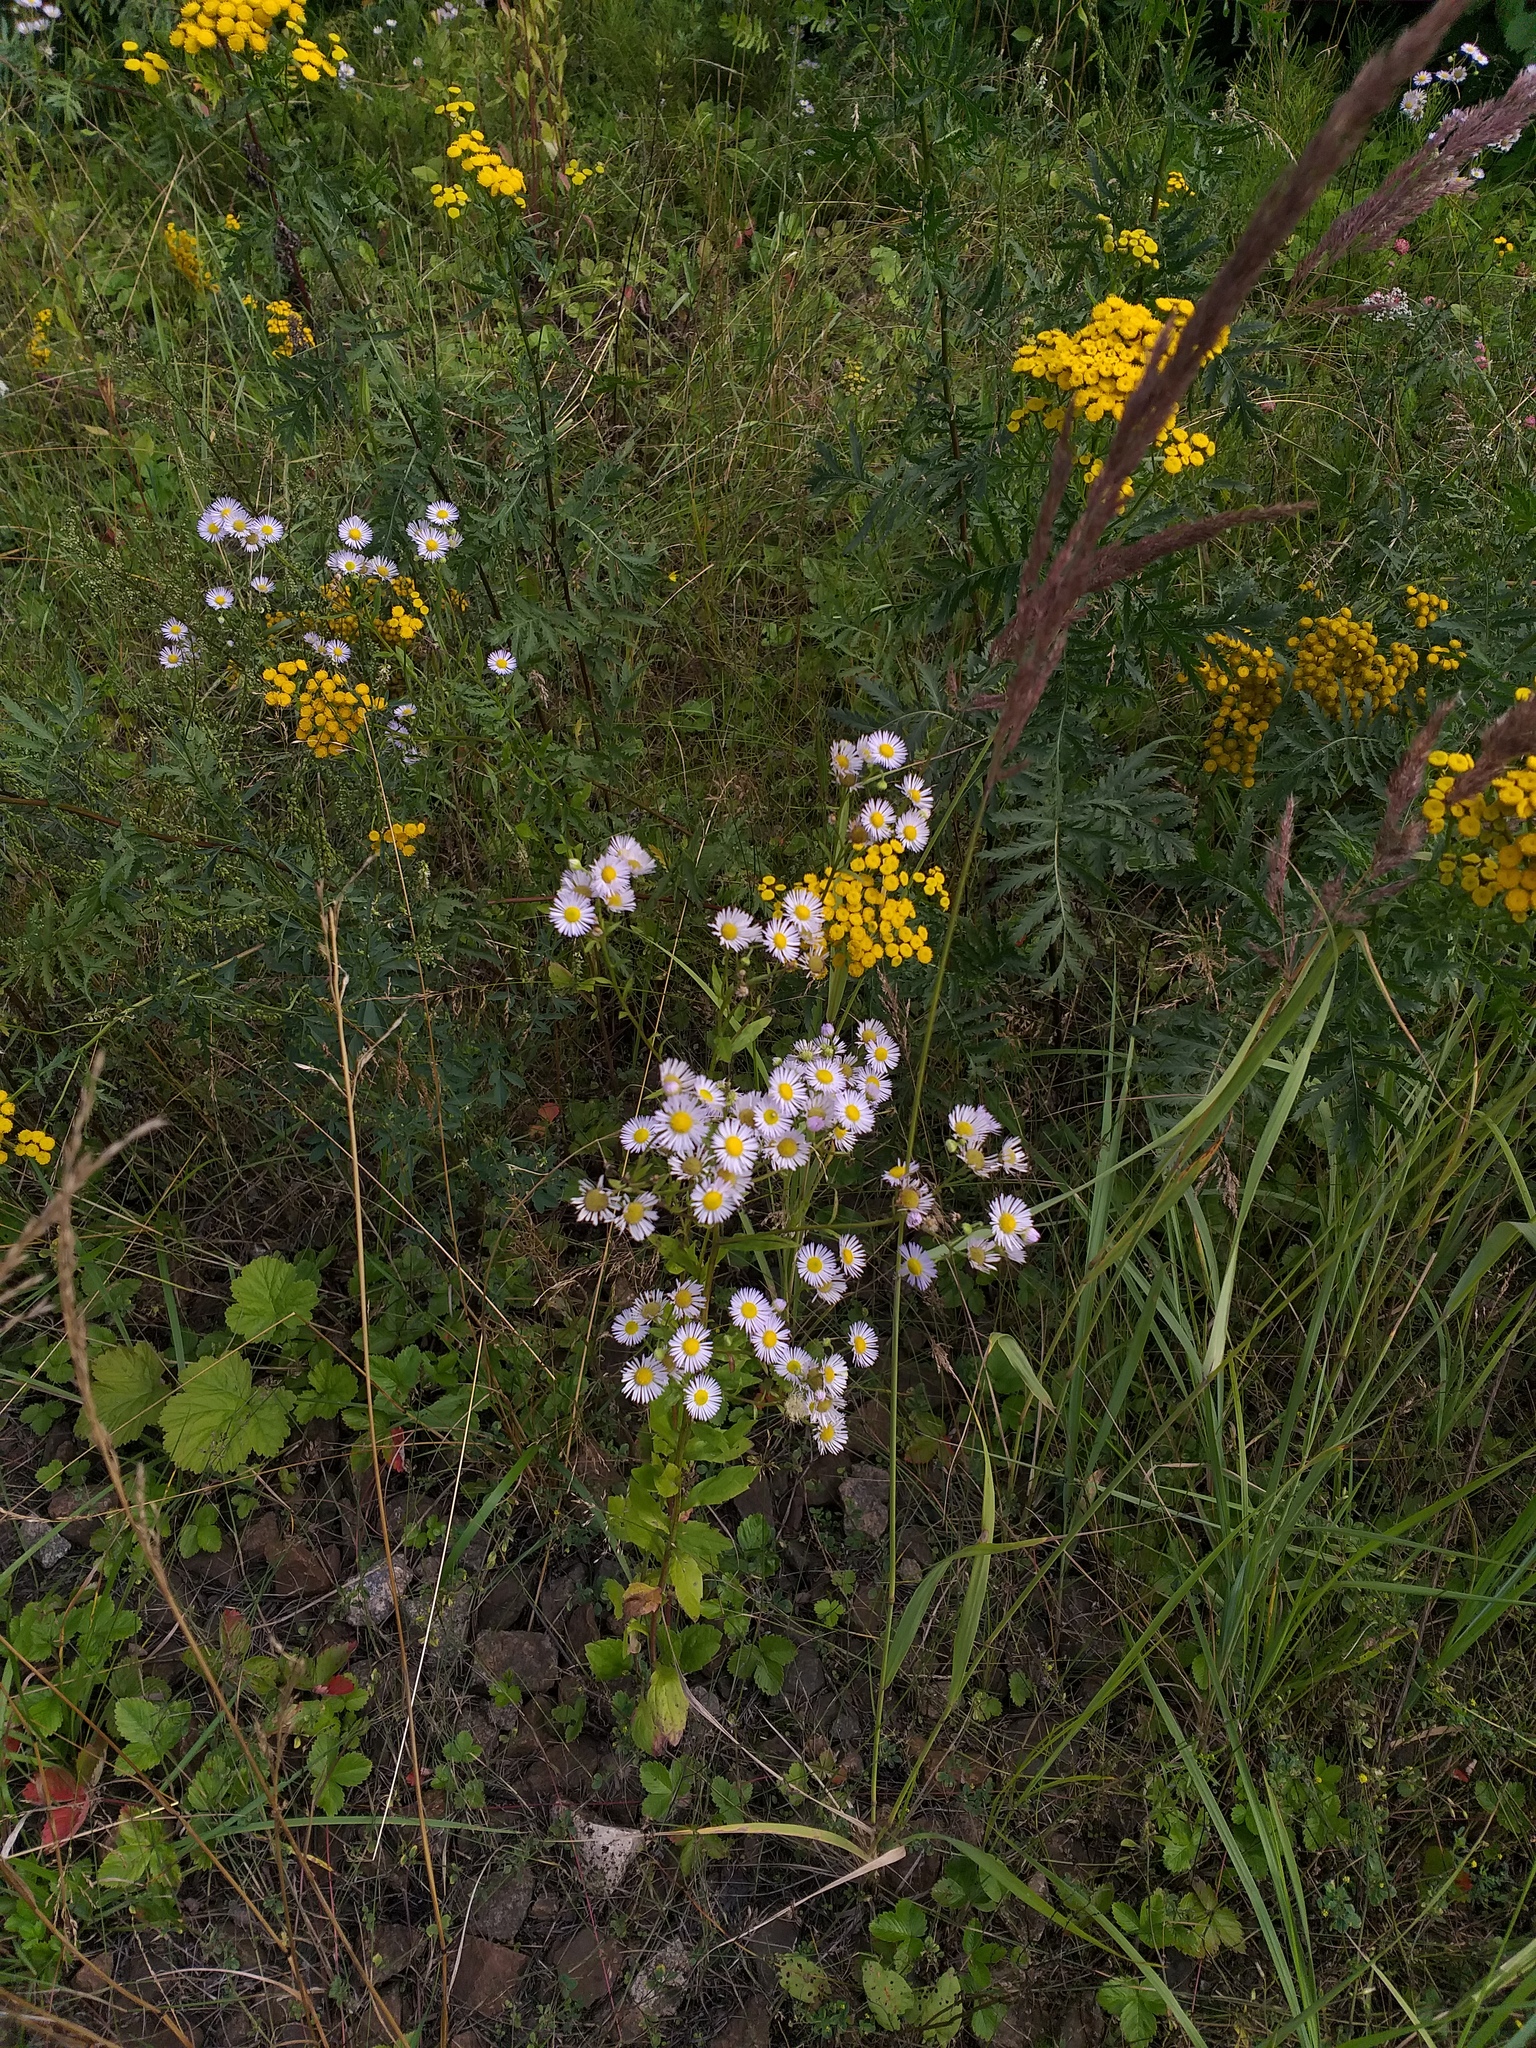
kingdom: Plantae
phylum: Tracheophyta
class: Magnoliopsida
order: Asterales
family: Asteraceae
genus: Erigeron
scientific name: Erigeron annuus
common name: Tall fleabane
